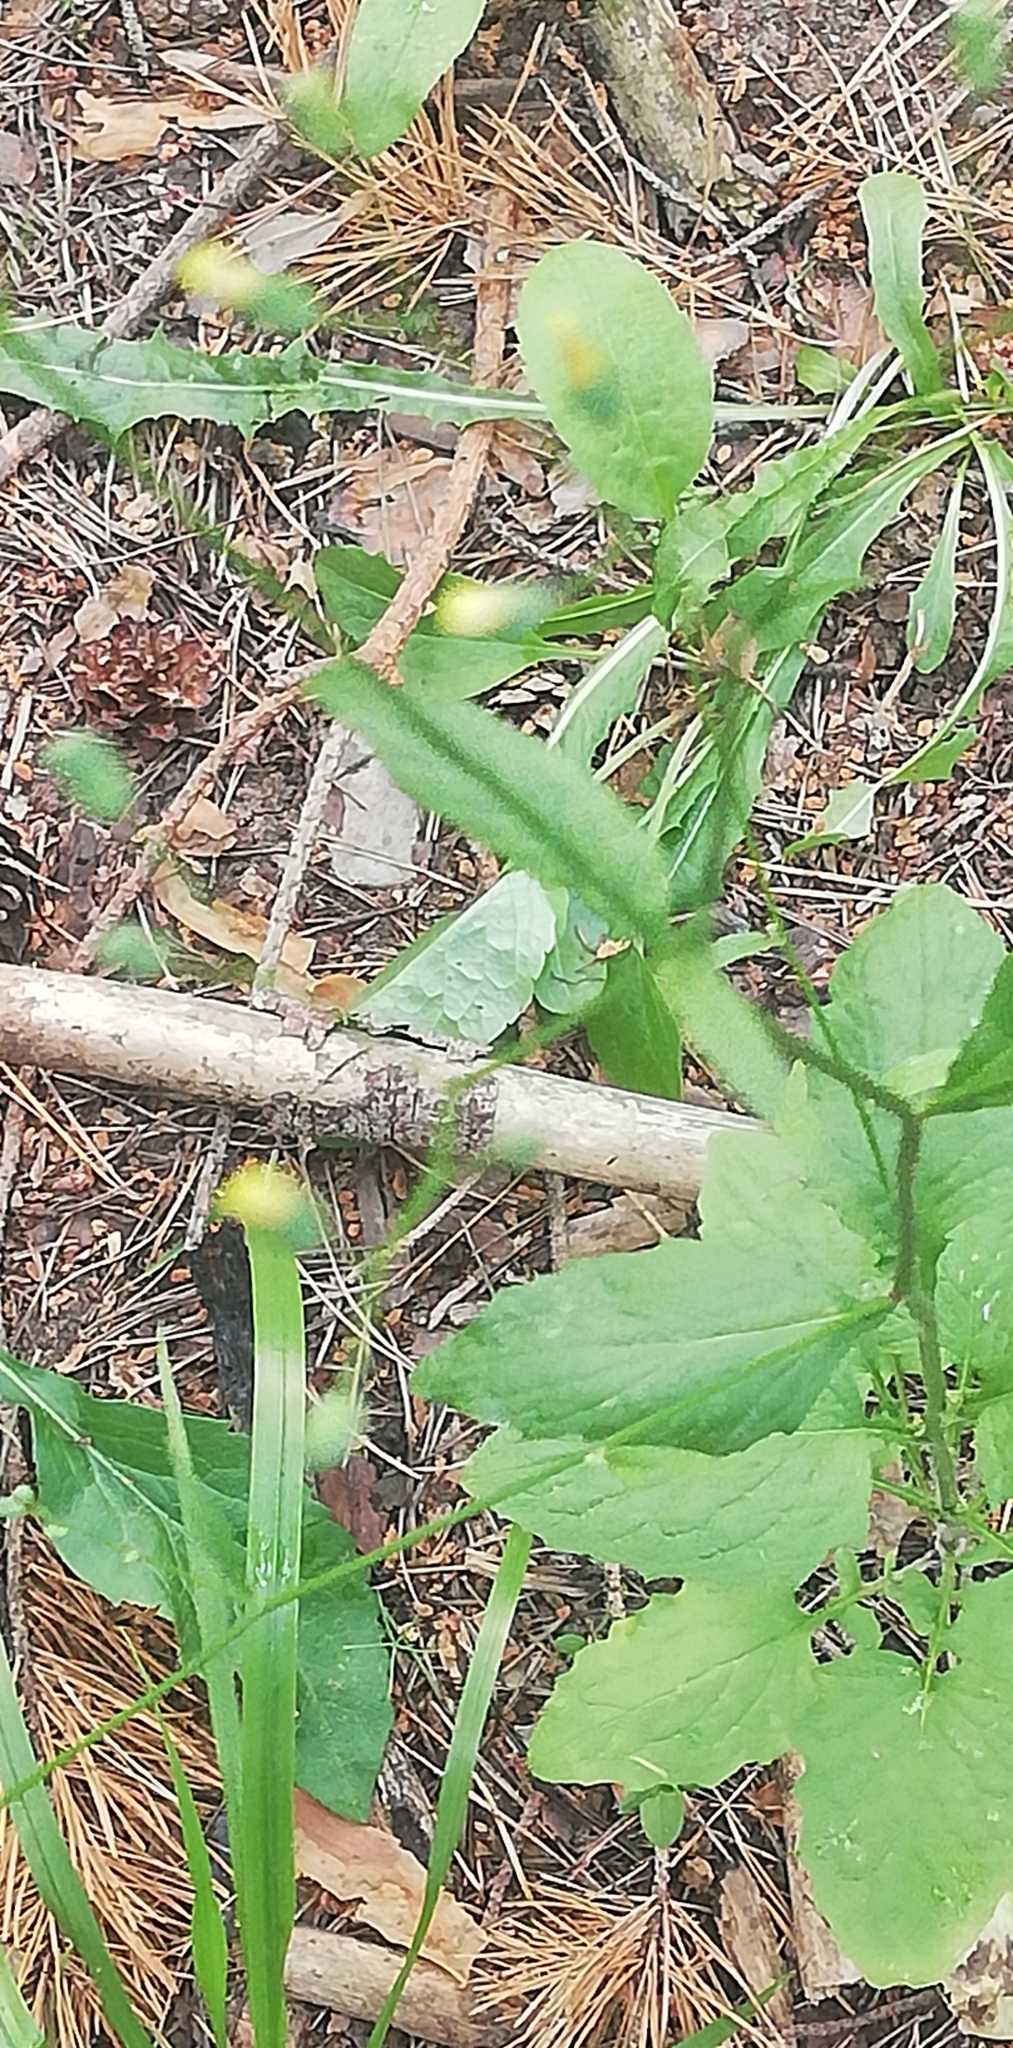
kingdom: Plantae
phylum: Tracheophyta
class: Magnoliopsida
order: Asterales
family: Asteraceae
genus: Lapsana
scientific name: Lapsana communis
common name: Nipplewort
